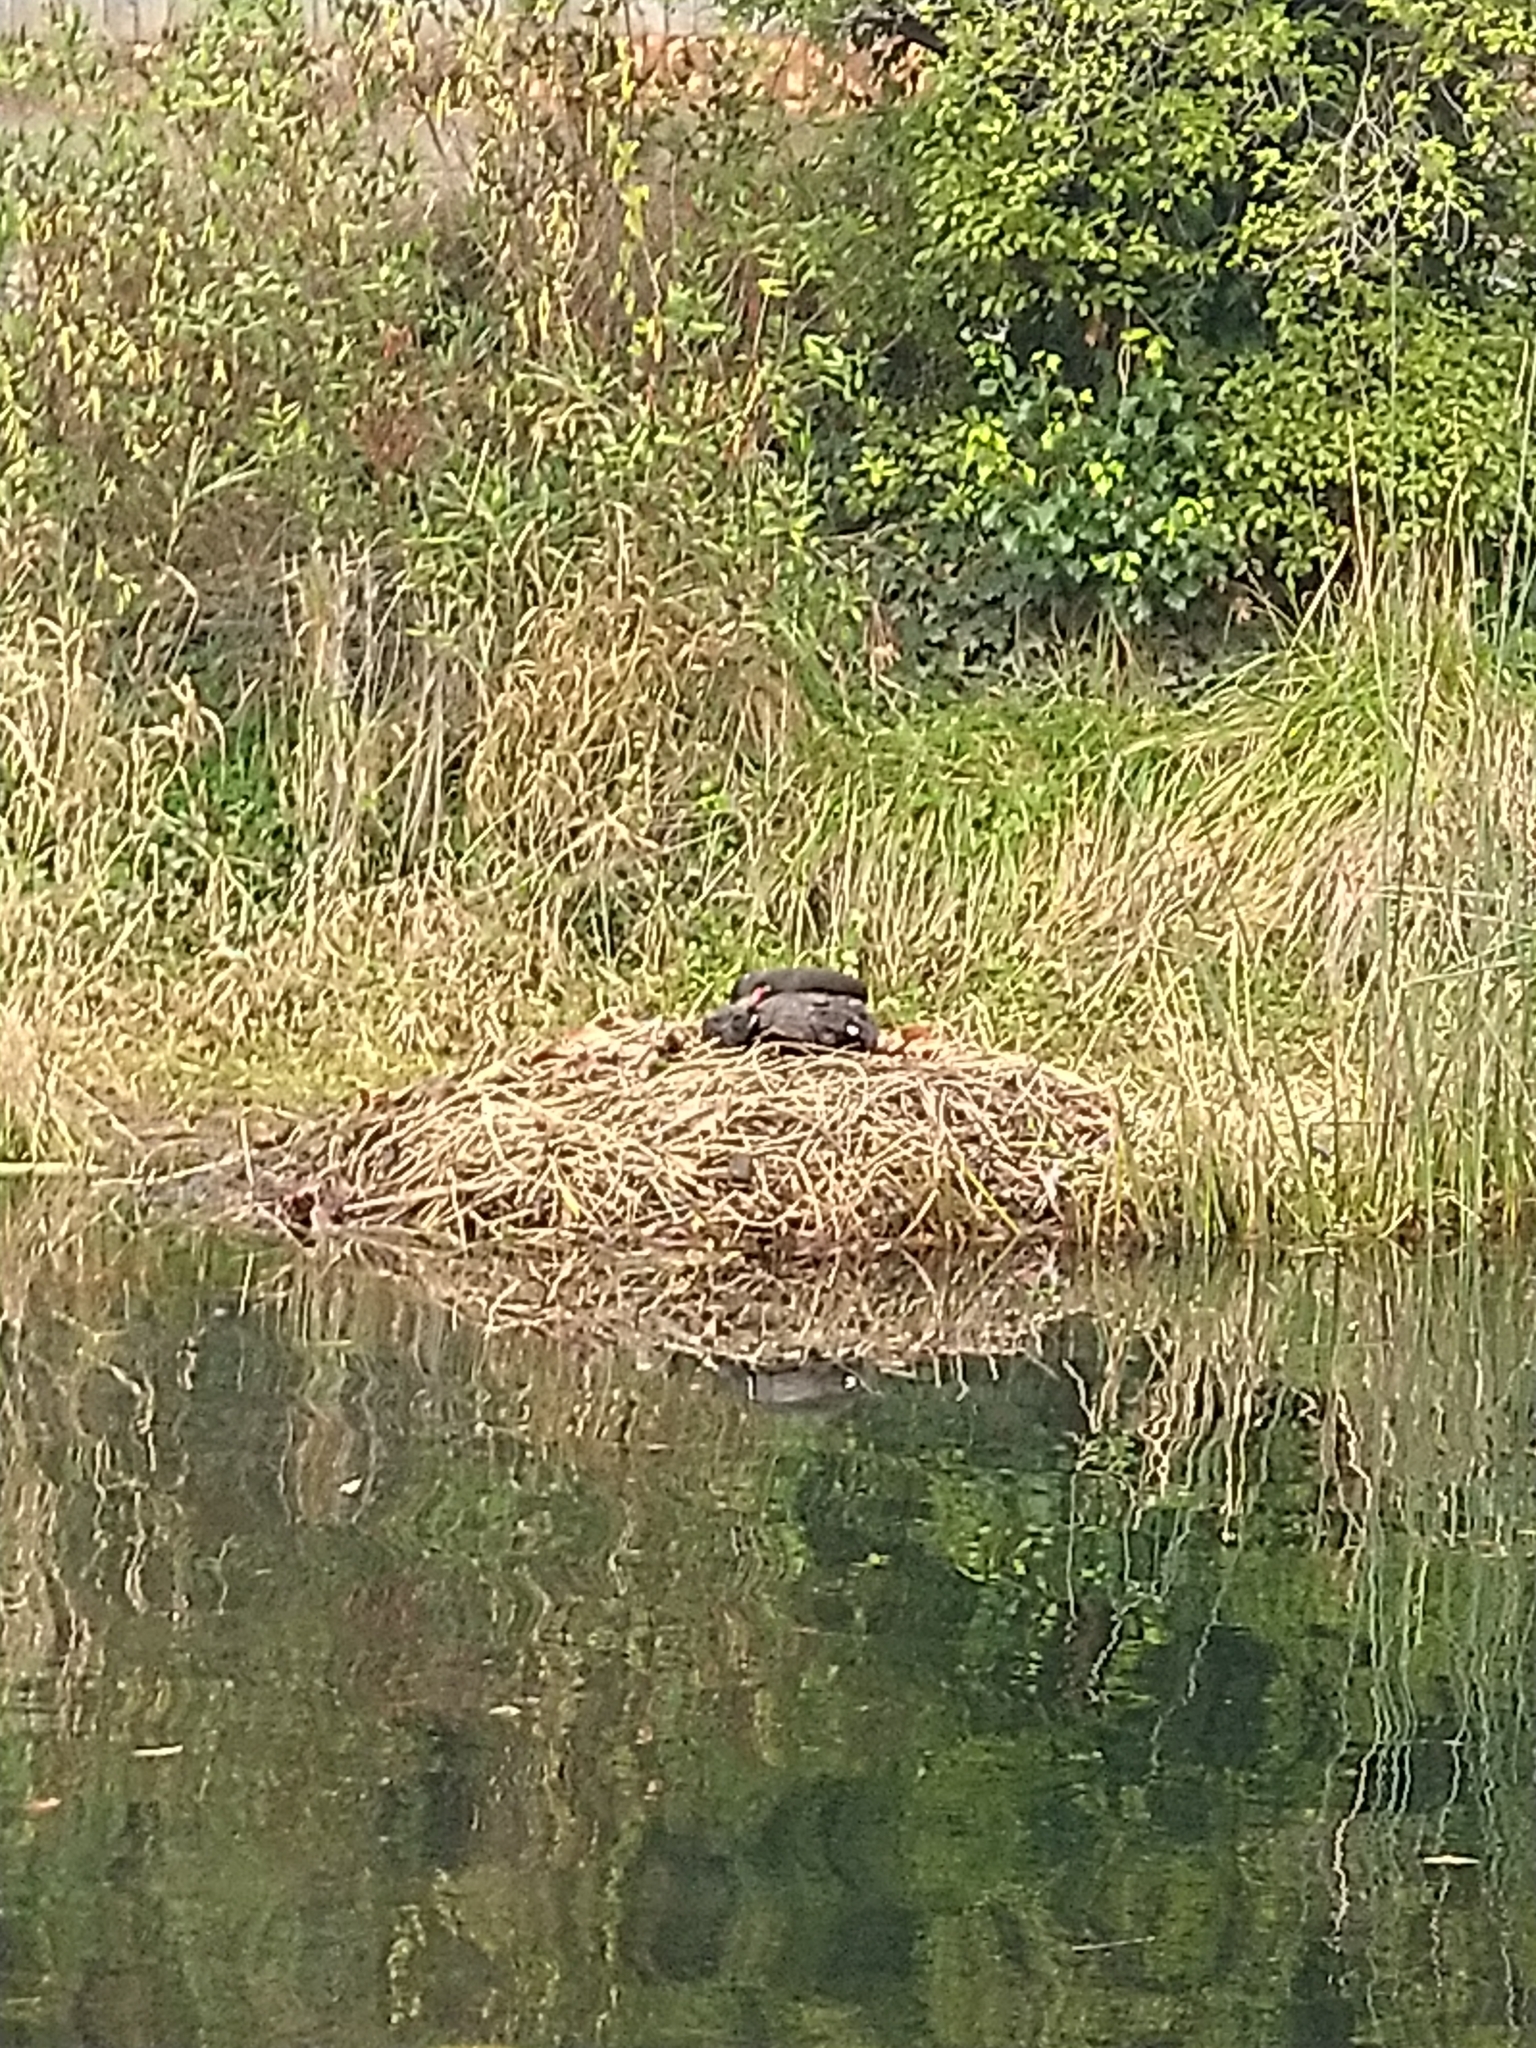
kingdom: Animalia
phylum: Chordata
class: Aves
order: Anseriformes
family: Anatidae
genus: Cygnus
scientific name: Cygnus atratus
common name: Black swan
